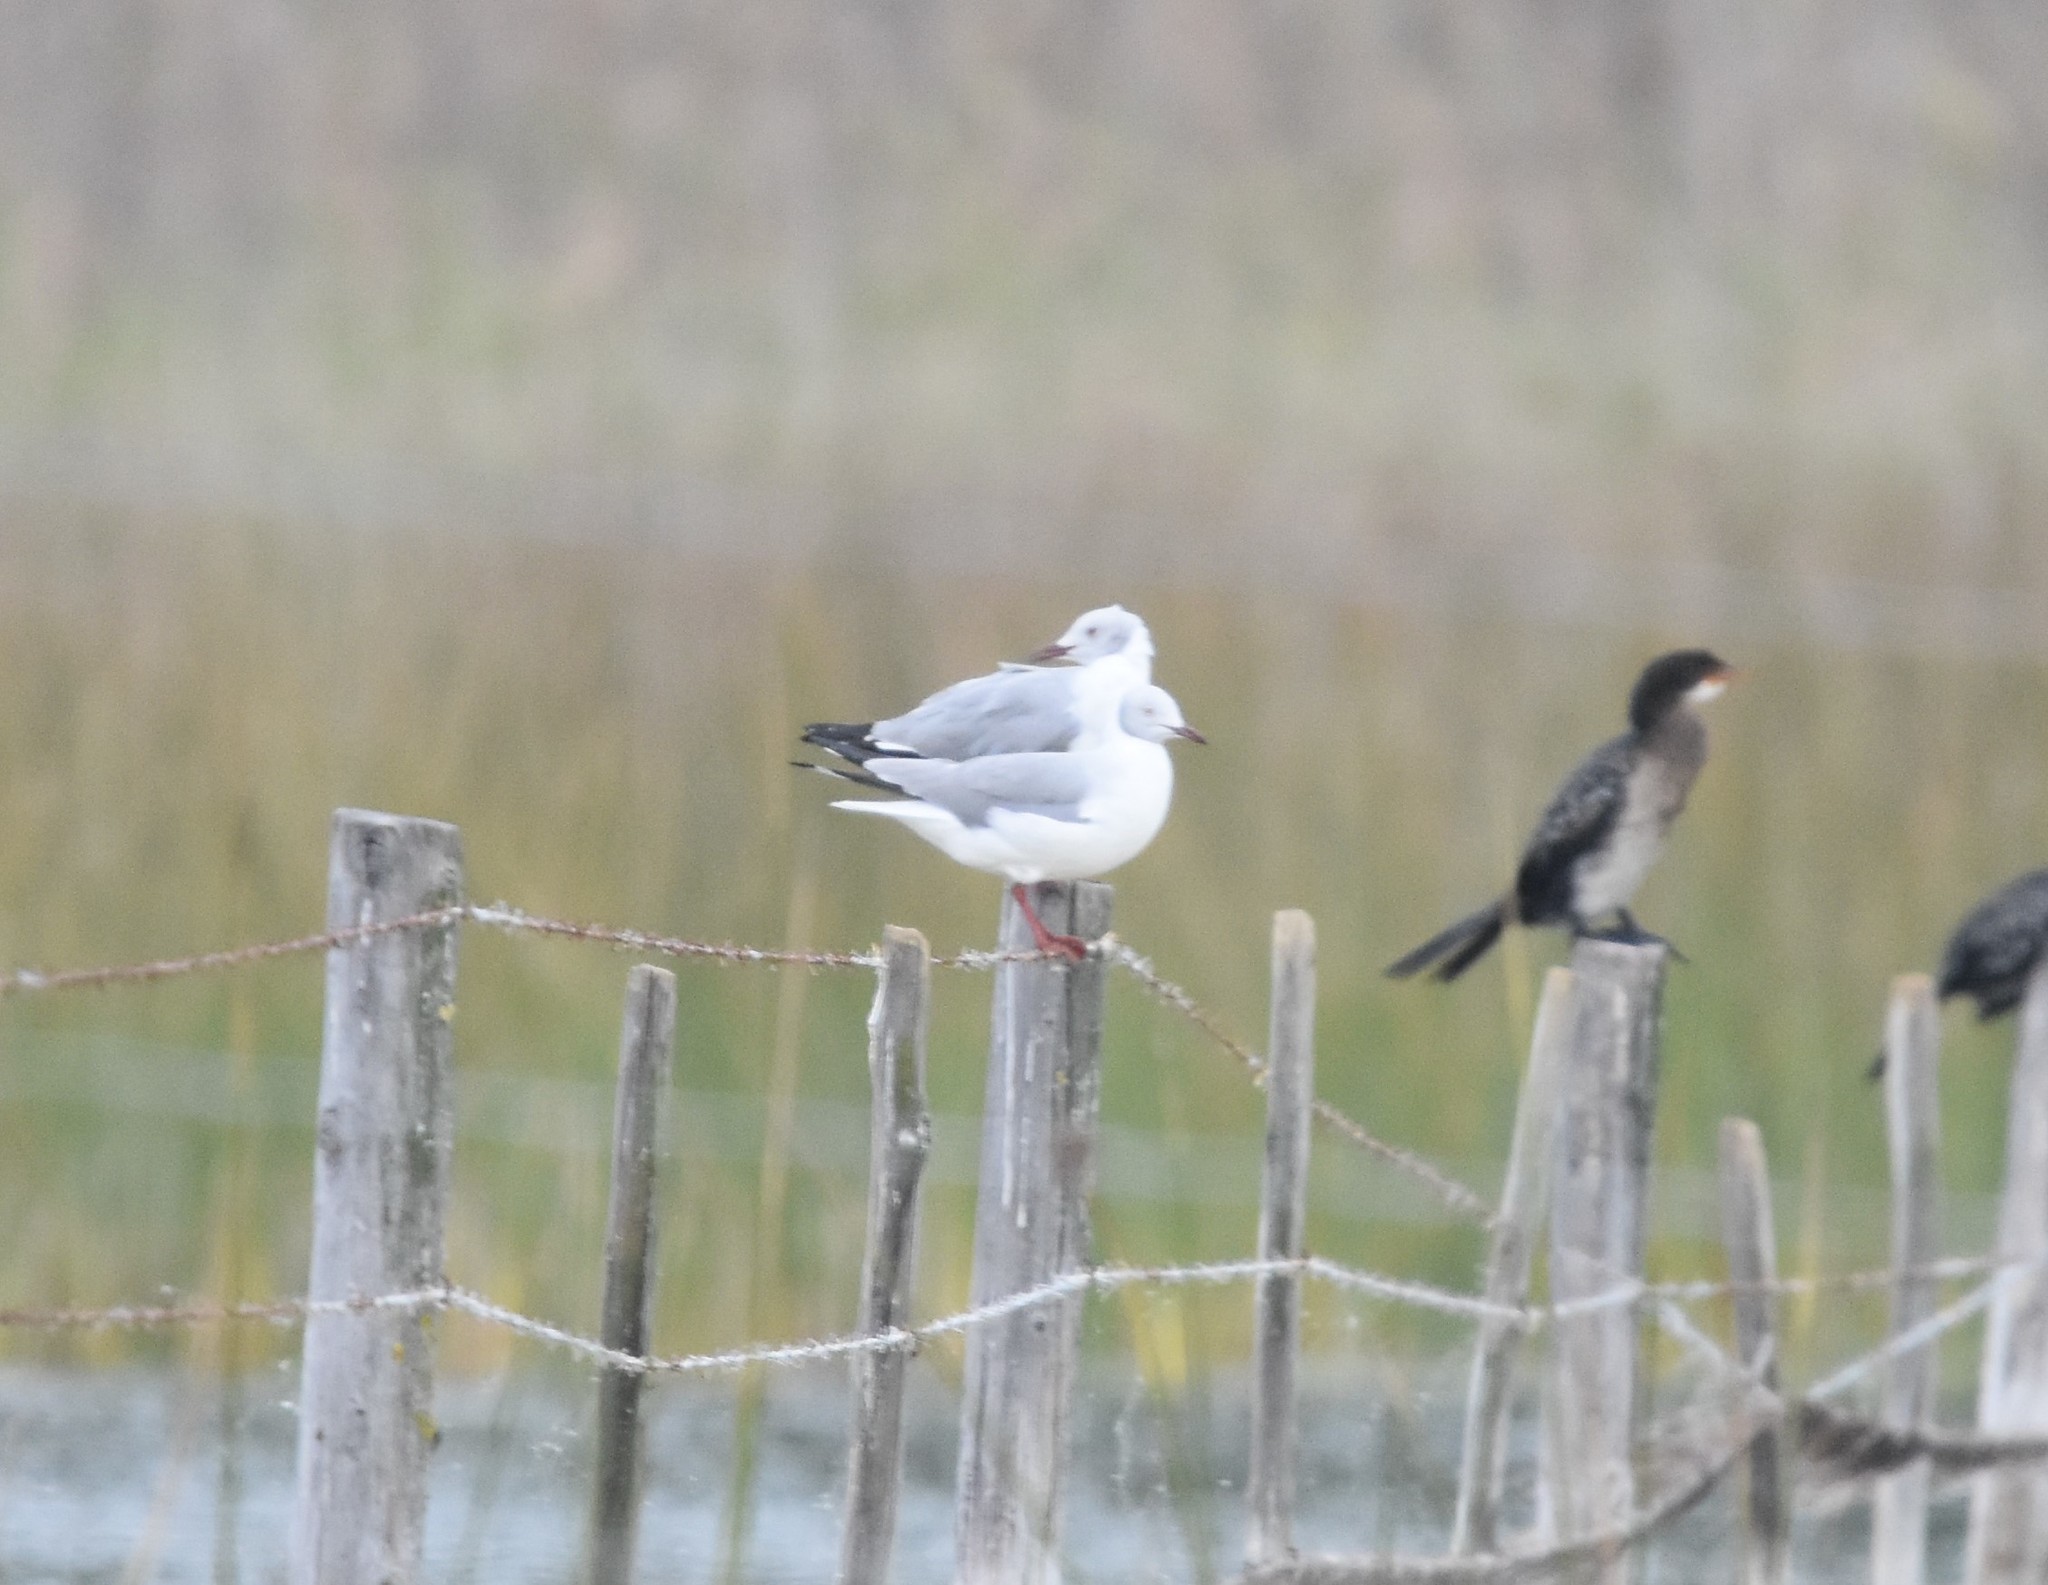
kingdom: Animalia
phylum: Chordata
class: Aves
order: Charadriiformes
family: Laridae
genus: Chroicocephalus
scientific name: Chroicocephalus cirrocephalus
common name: Grey-headed gull
